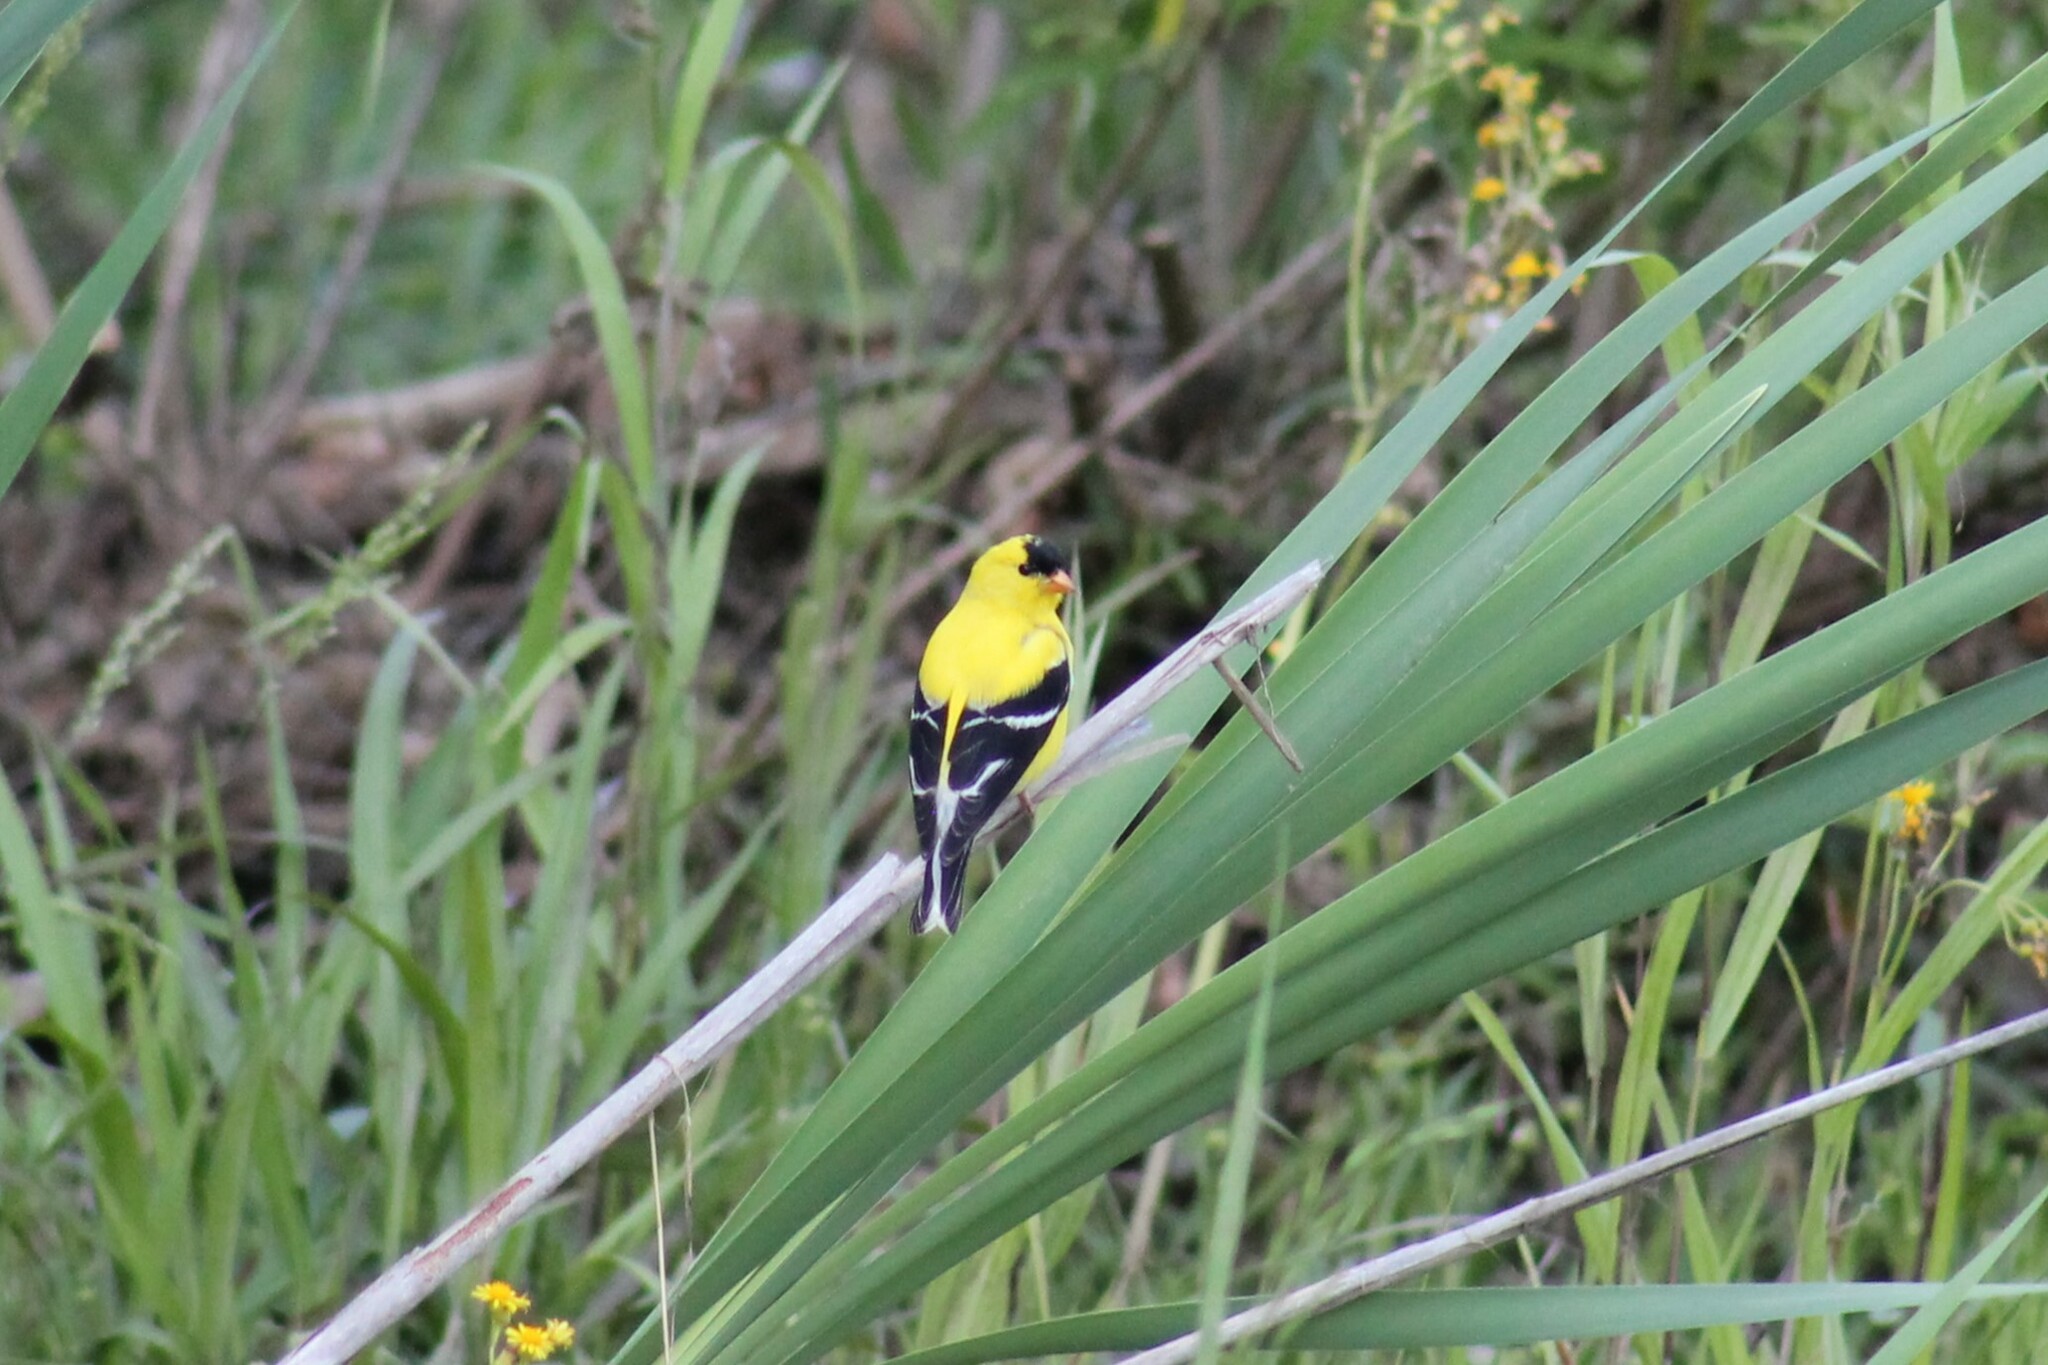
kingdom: Animalia
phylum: Chordata
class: Aves
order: Passeriformes
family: Fringillidae
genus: Spinus
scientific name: Spinus tristis
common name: American goldfinch
